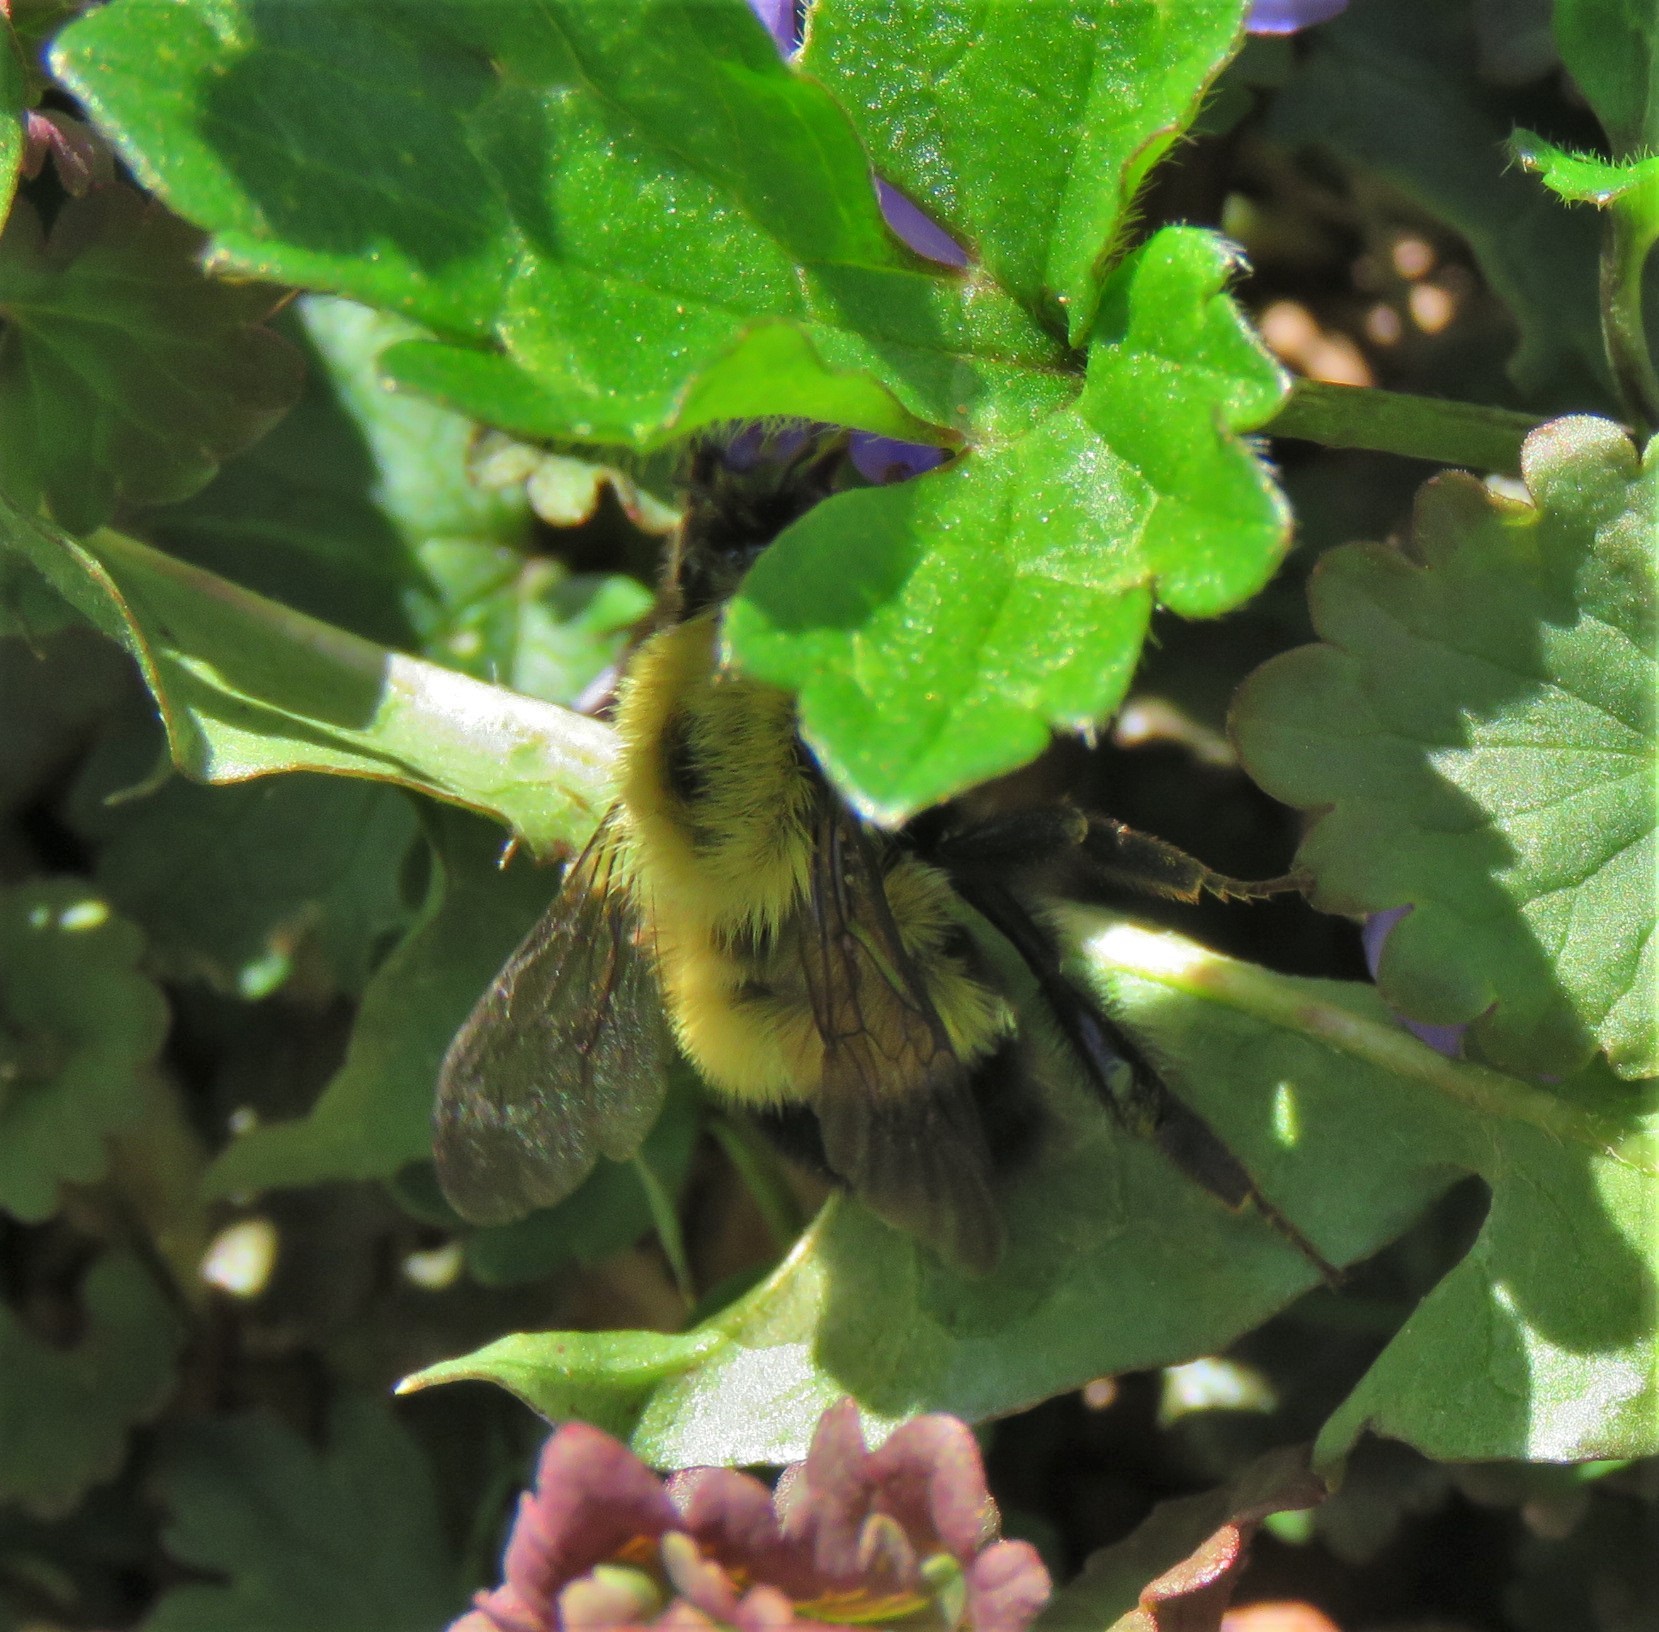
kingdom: Animalia
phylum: Arthropoda
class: Insecta
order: Hymenoptera
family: Apidae
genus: Pyrobombus
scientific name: Pyrobombus
